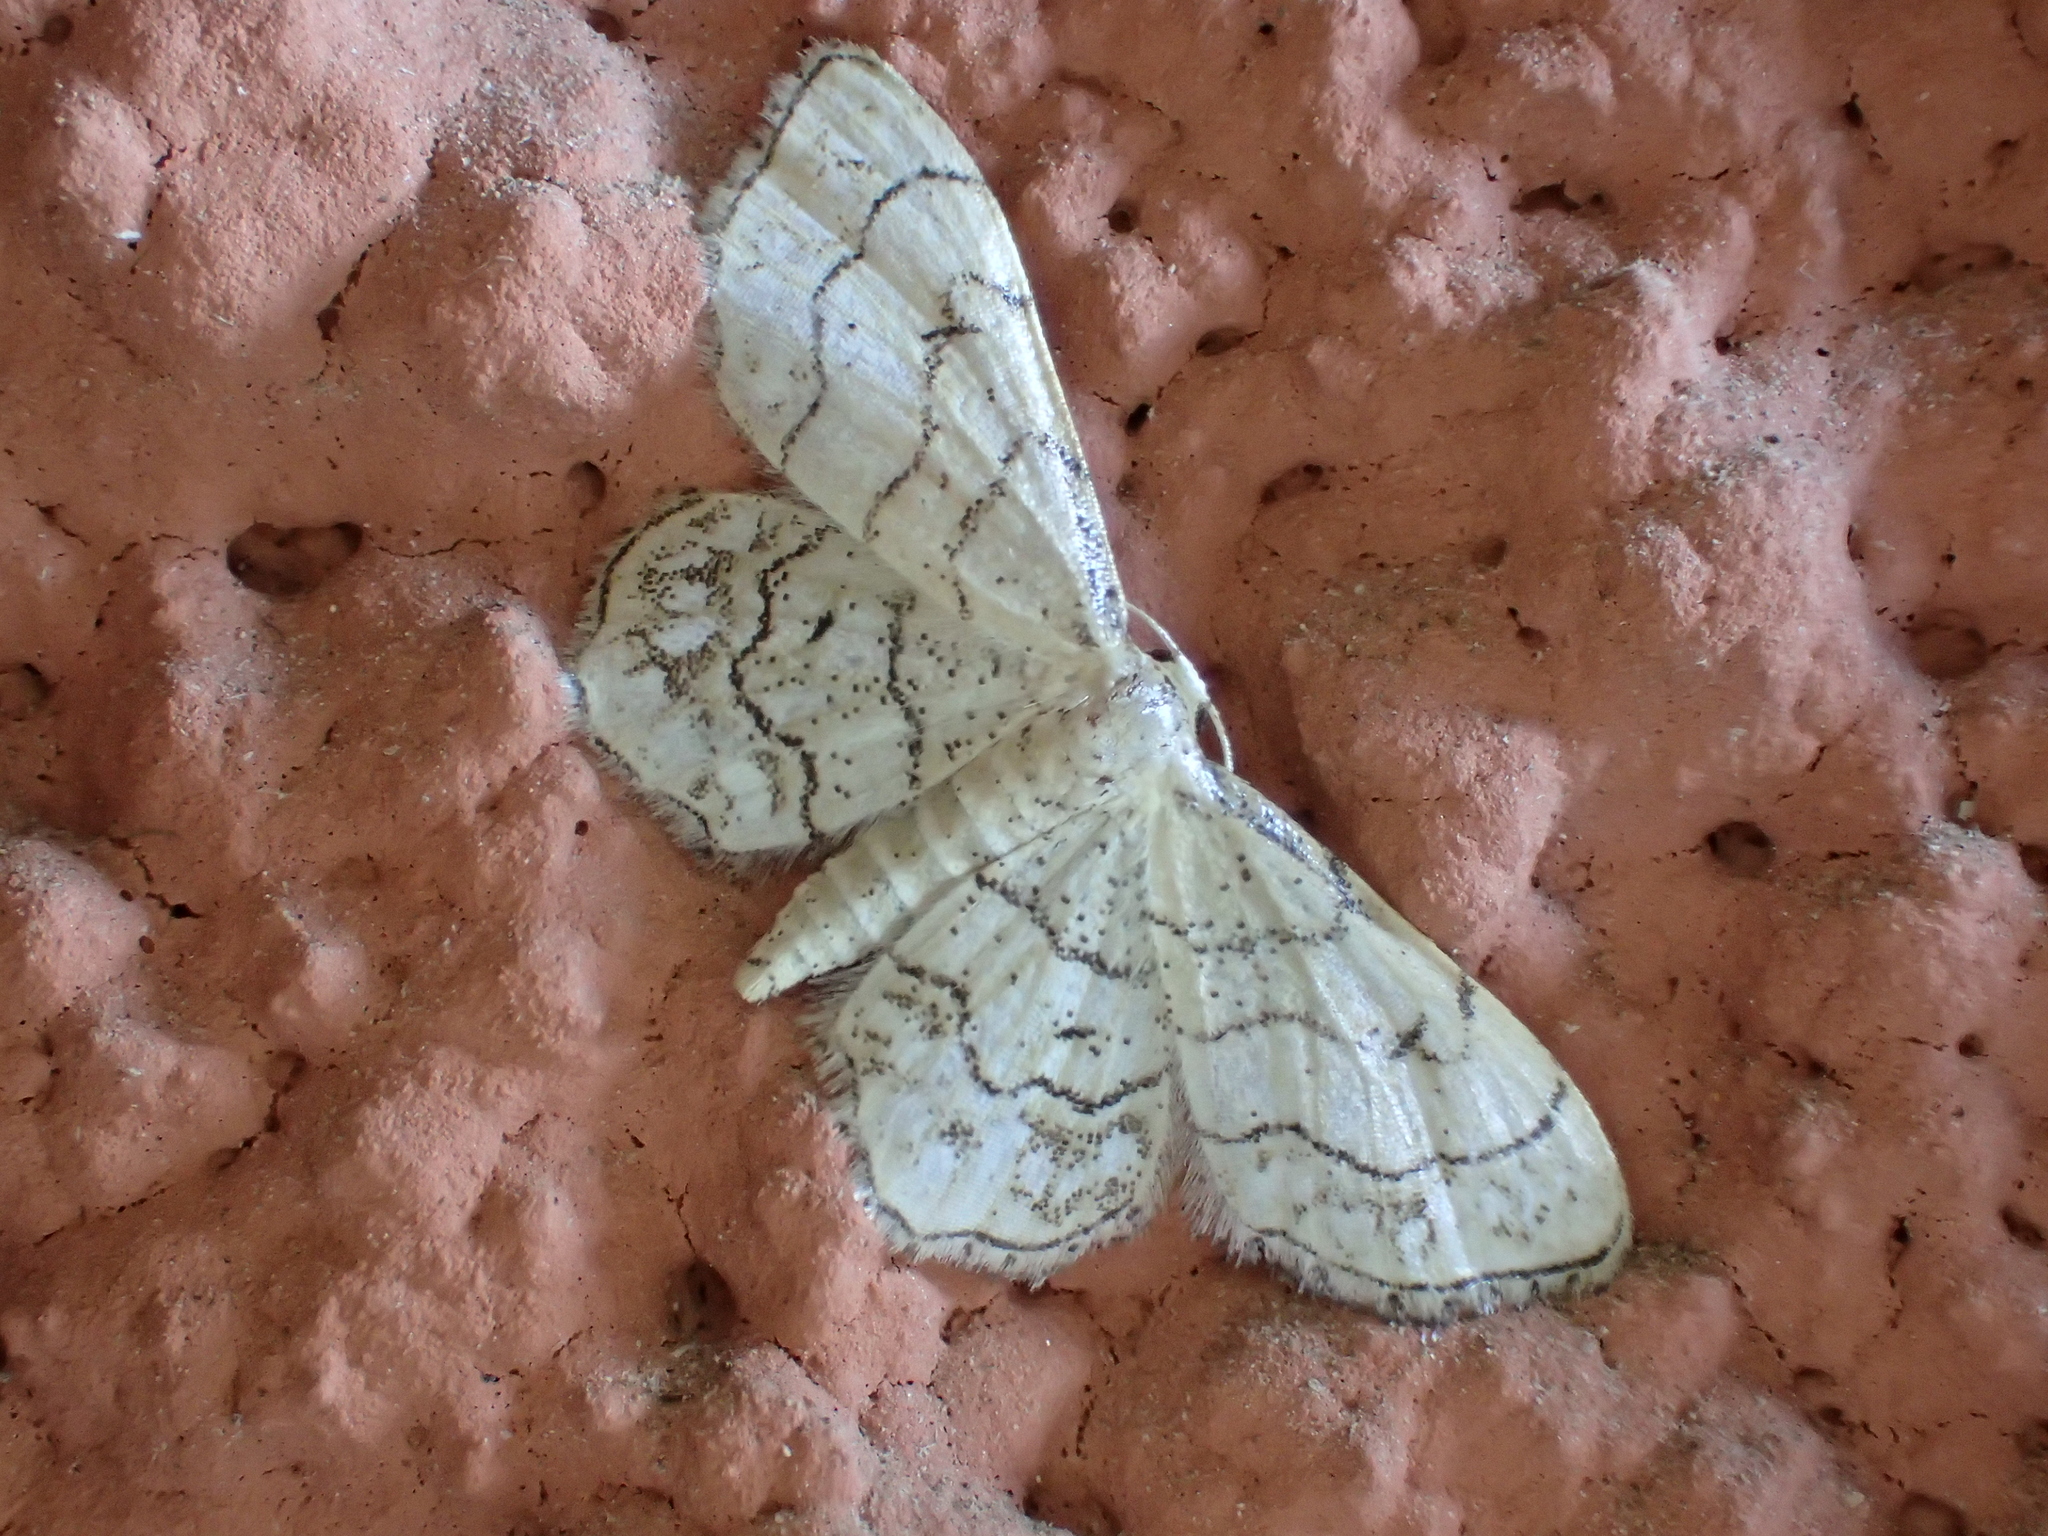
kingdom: Animalia
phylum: Arthropoda
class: Insecta
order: Lepidoptera
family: Geometridae
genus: Idaea
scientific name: Idaea moniliata
